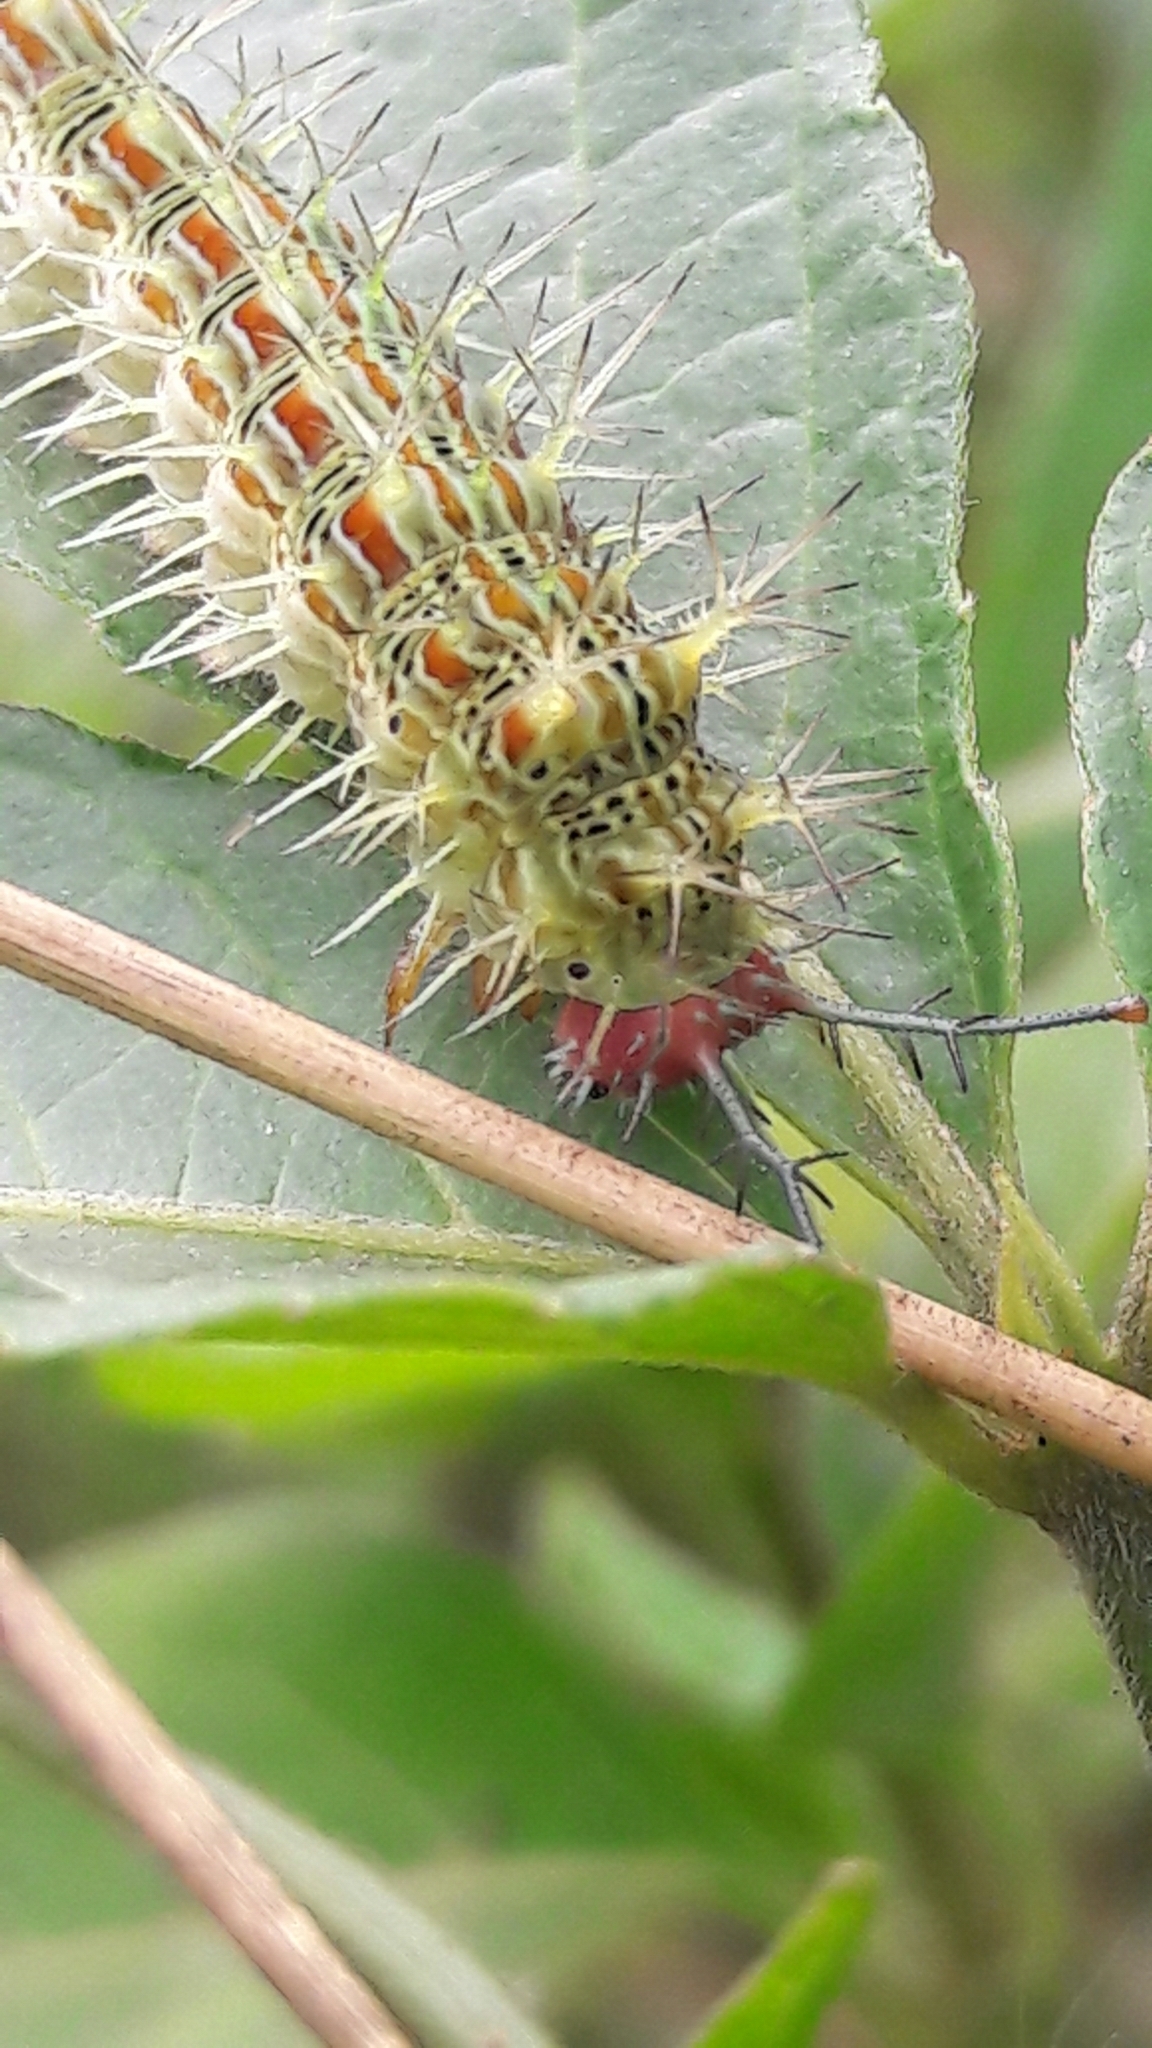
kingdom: Animalia
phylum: Arthropoda
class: Insecta
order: Lepidoptera
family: Nymphalidae
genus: Hamadryas
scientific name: Hamadryas februa
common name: Gray cracker
